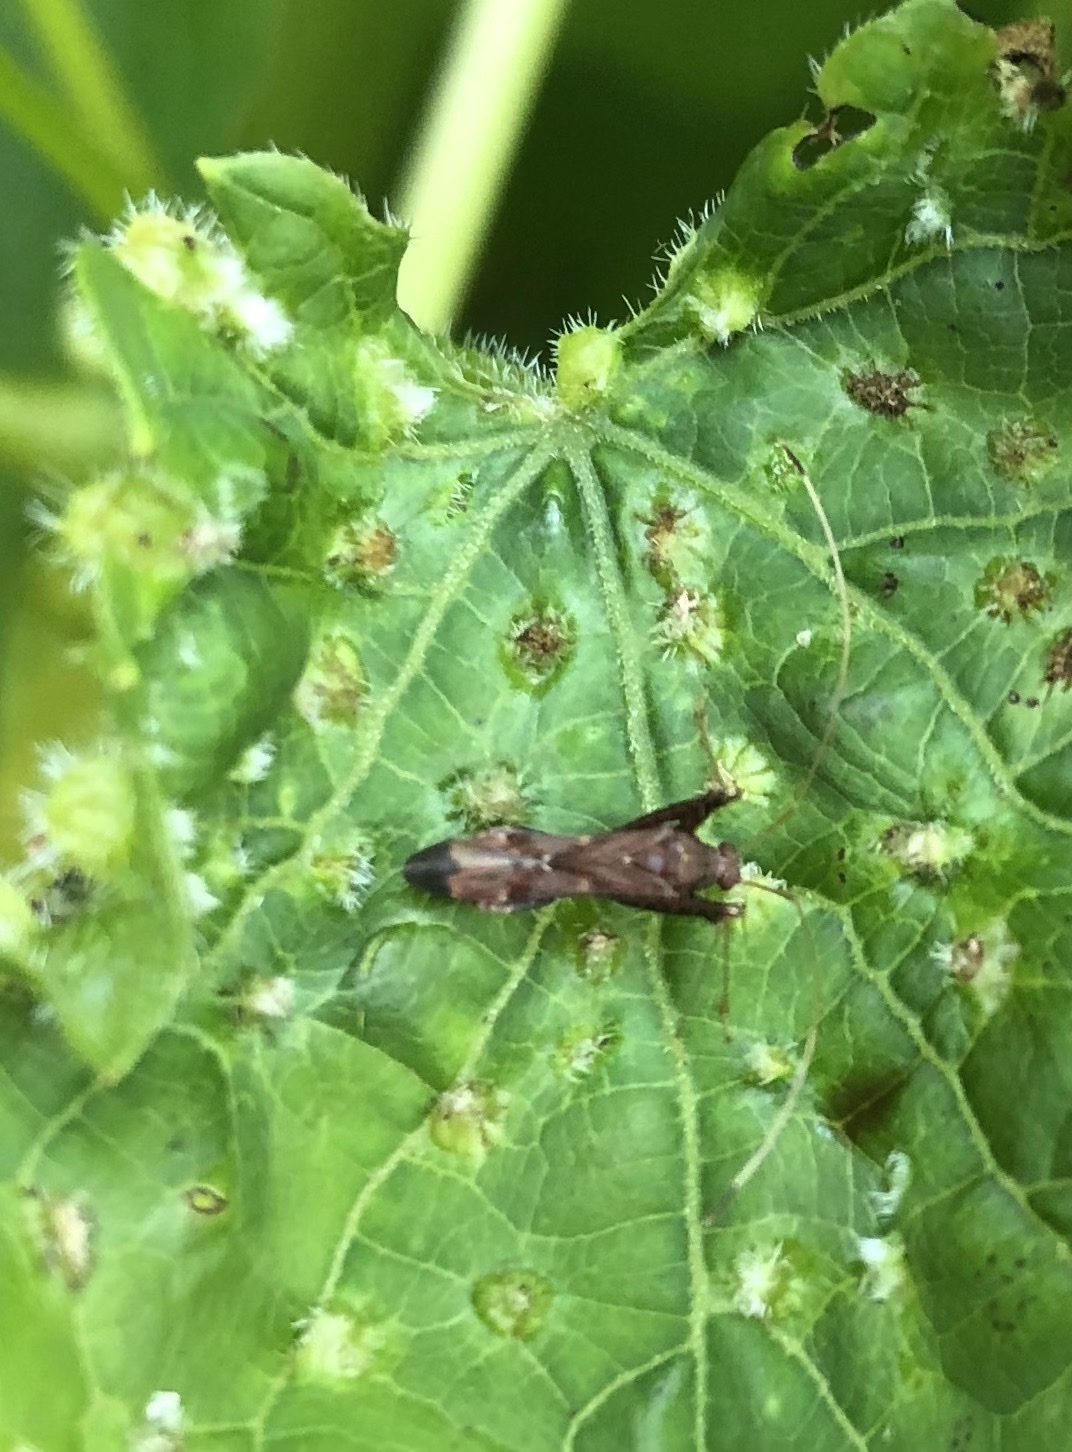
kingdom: Animalia
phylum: Arthropoda
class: Insecta
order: Hemiptera
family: Miridae
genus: Paraxenetus
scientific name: Paraxenetus guttulatus
